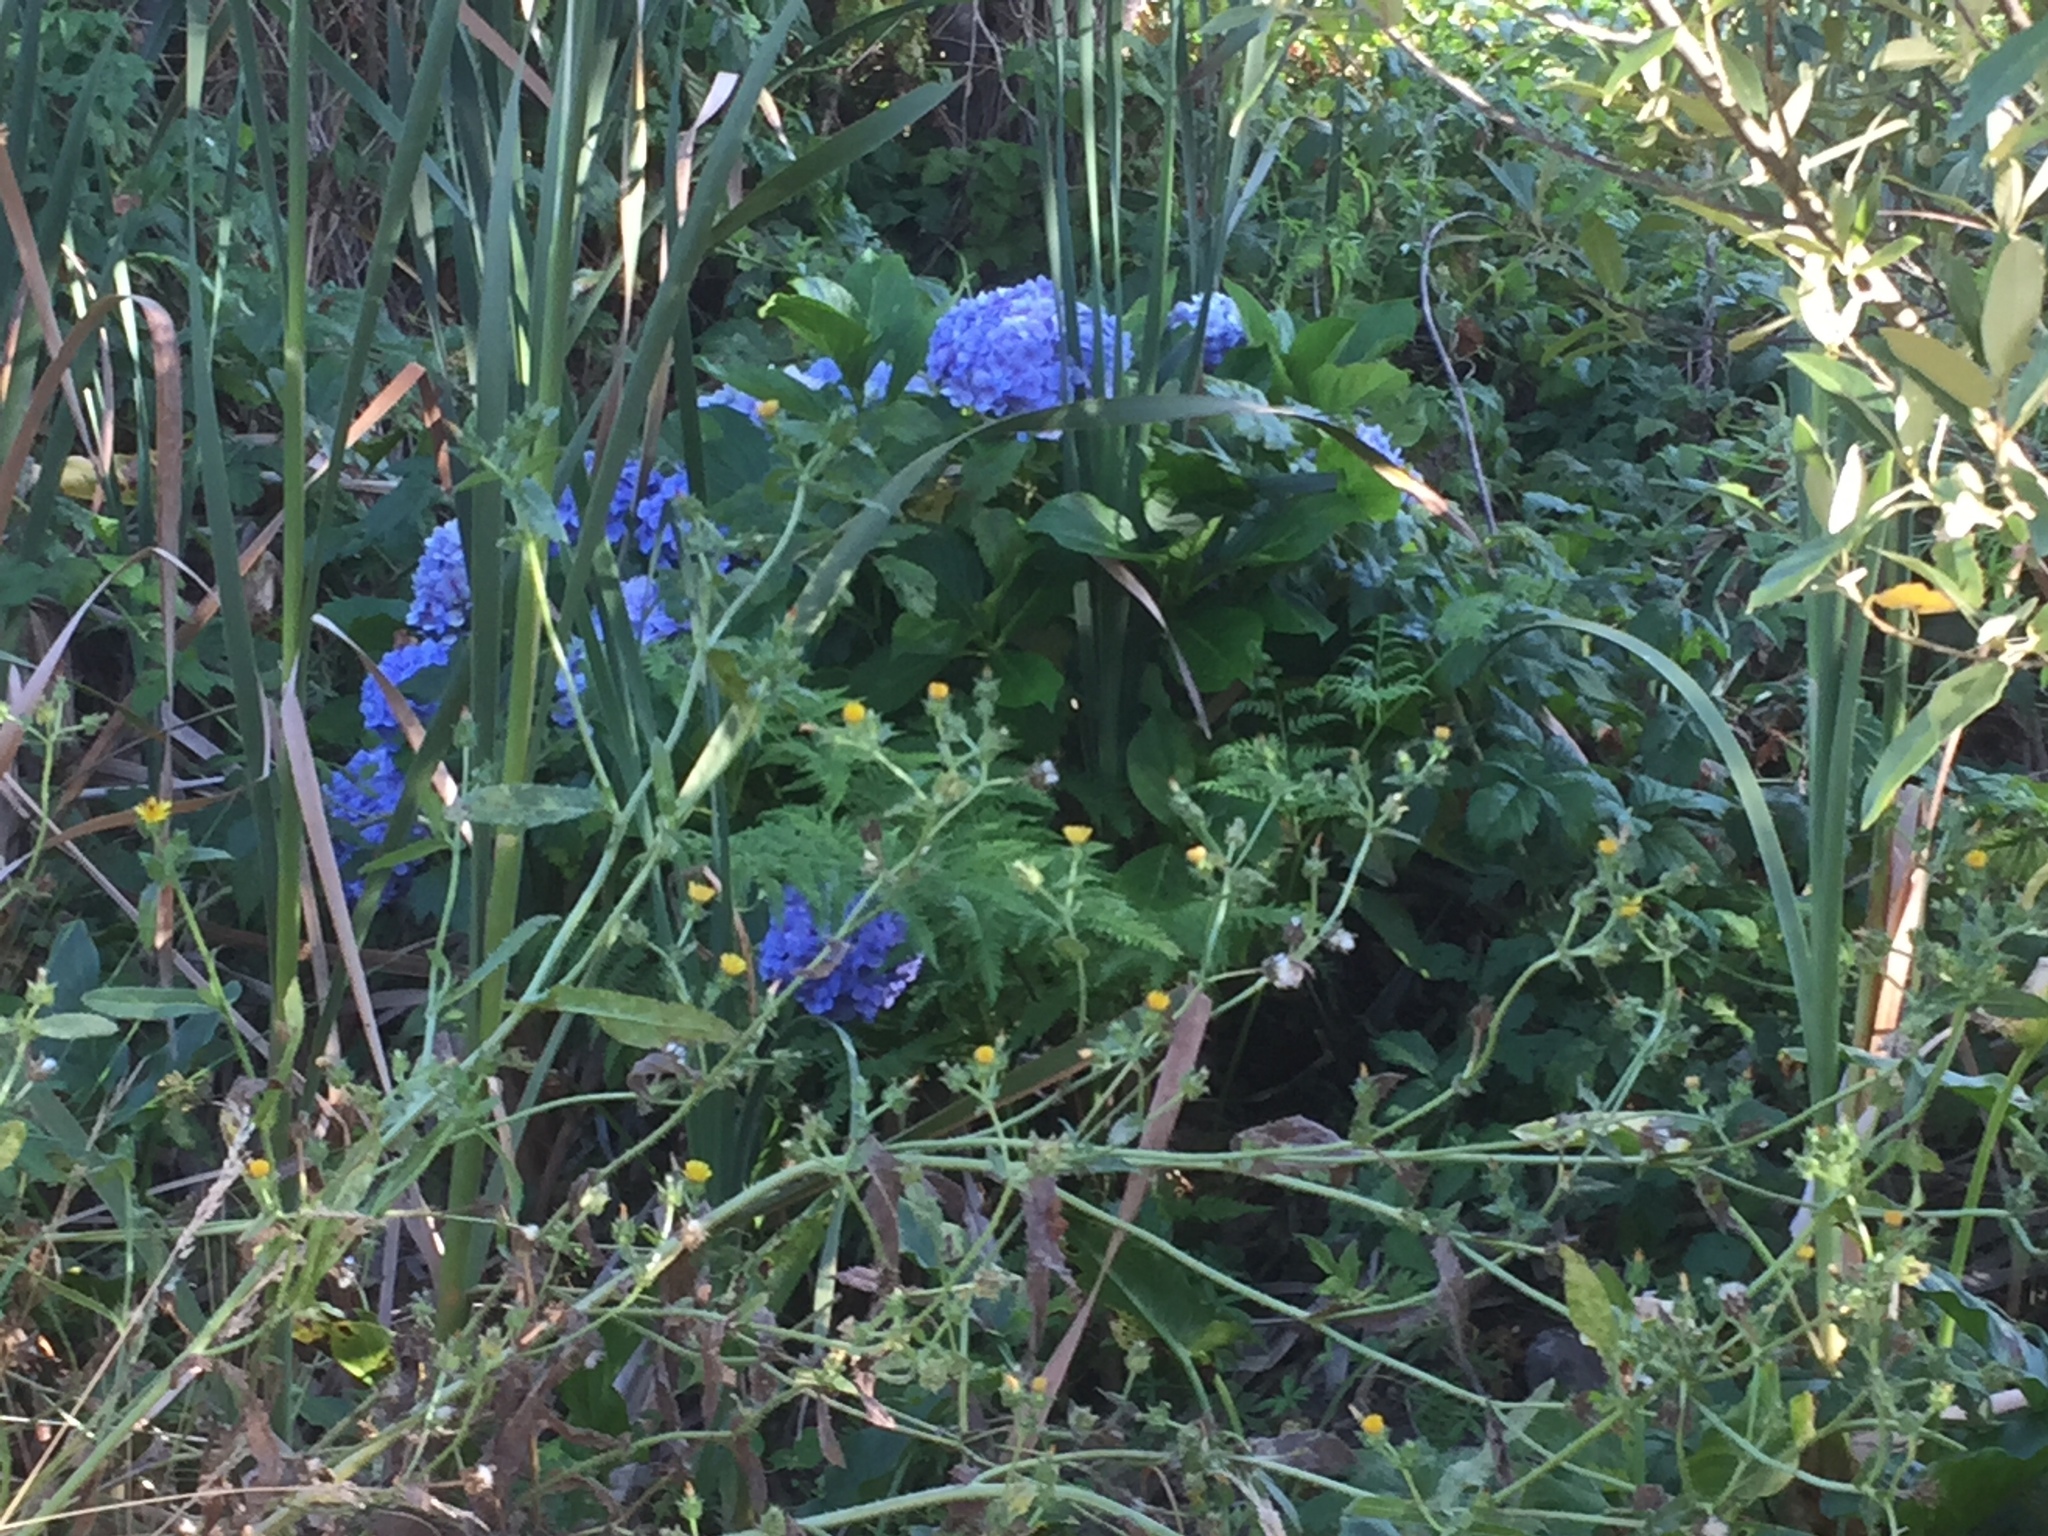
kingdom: Plantae
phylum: Tracheophyta
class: Magnoliopsida
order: Cornales
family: Hydrangeaceae
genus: Hydrangea
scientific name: Hydrangea macrophylla
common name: Hydrangea
